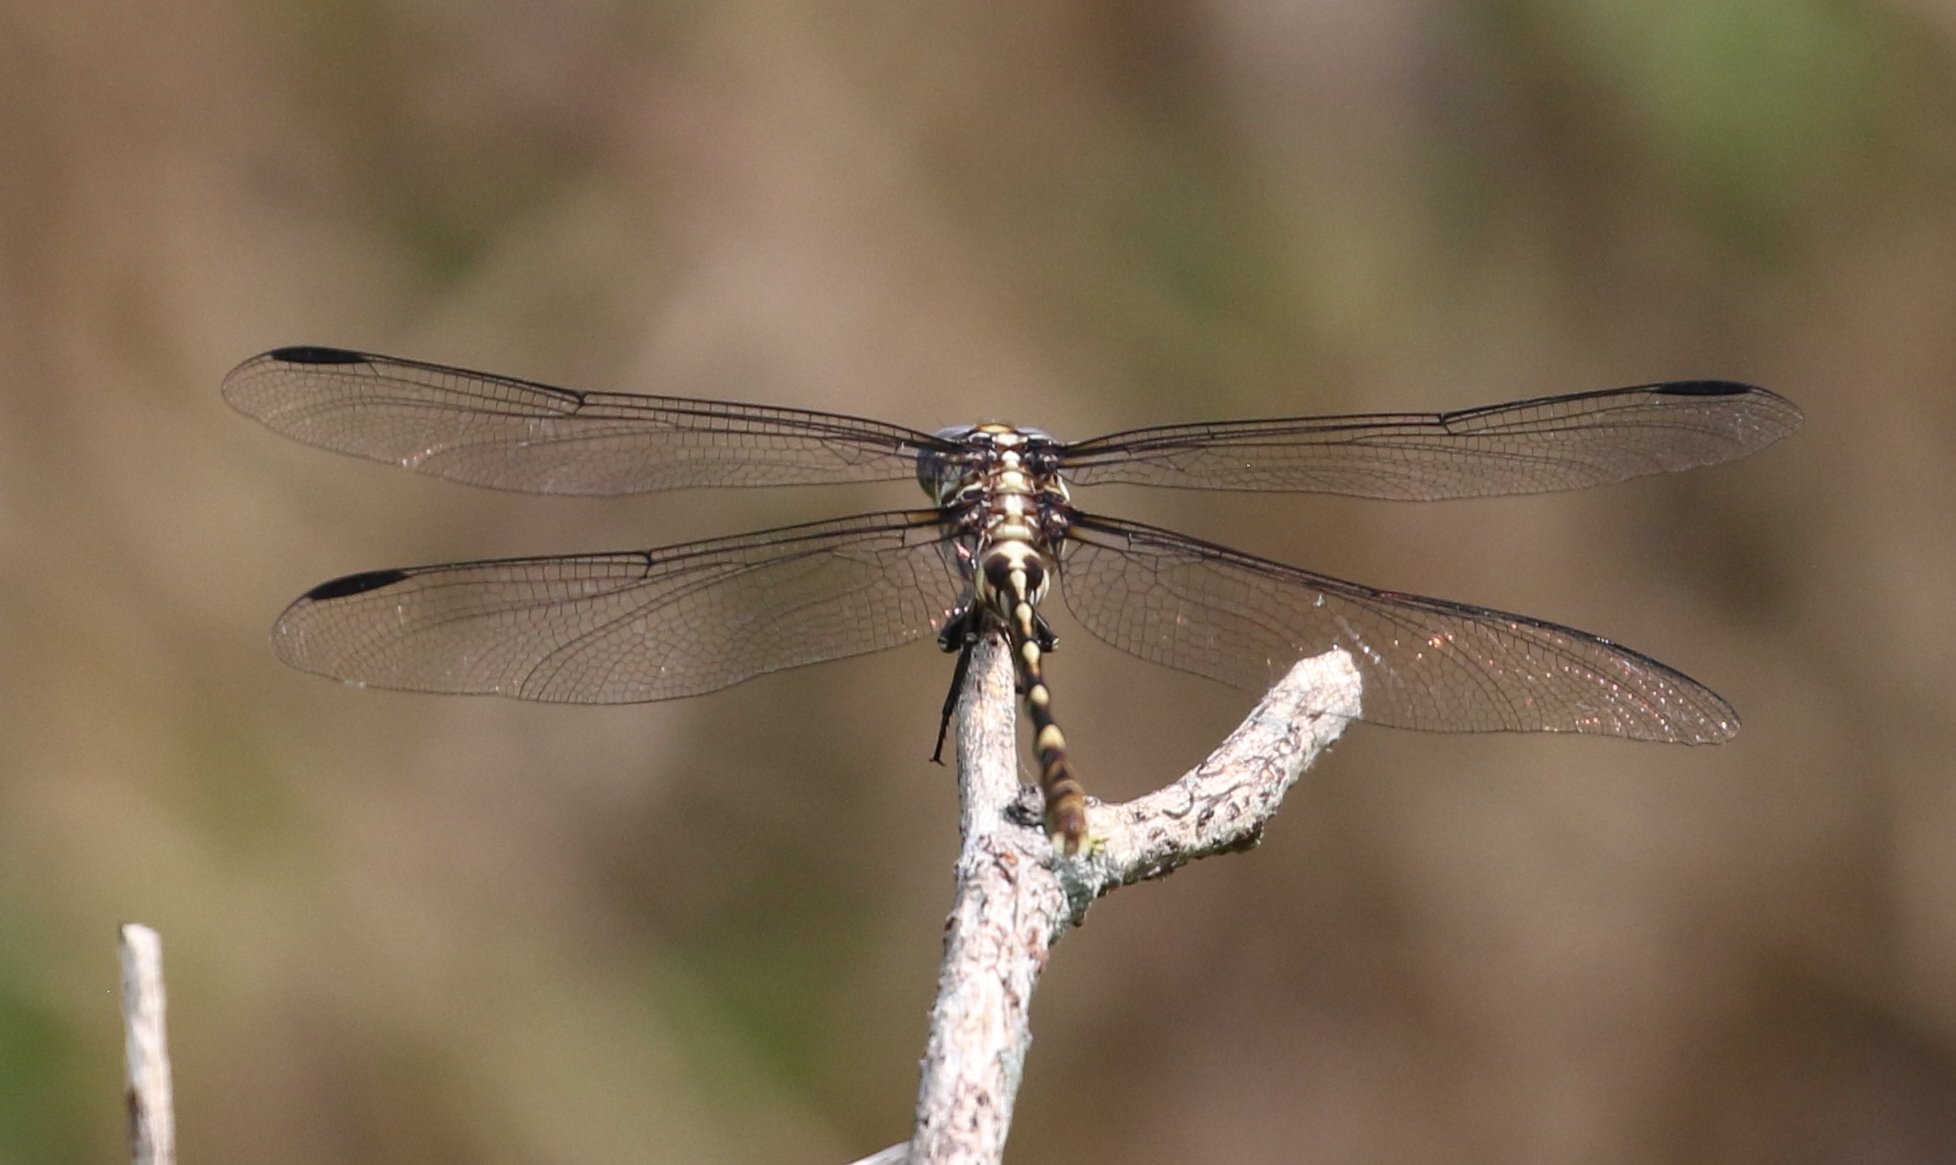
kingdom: Animalia
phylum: Arthropoda
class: Insecta
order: Odonata
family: Gomphidae
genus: Phyllogomphoides
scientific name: Phyllogomphoides albrighti
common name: Five-striped leaftail
